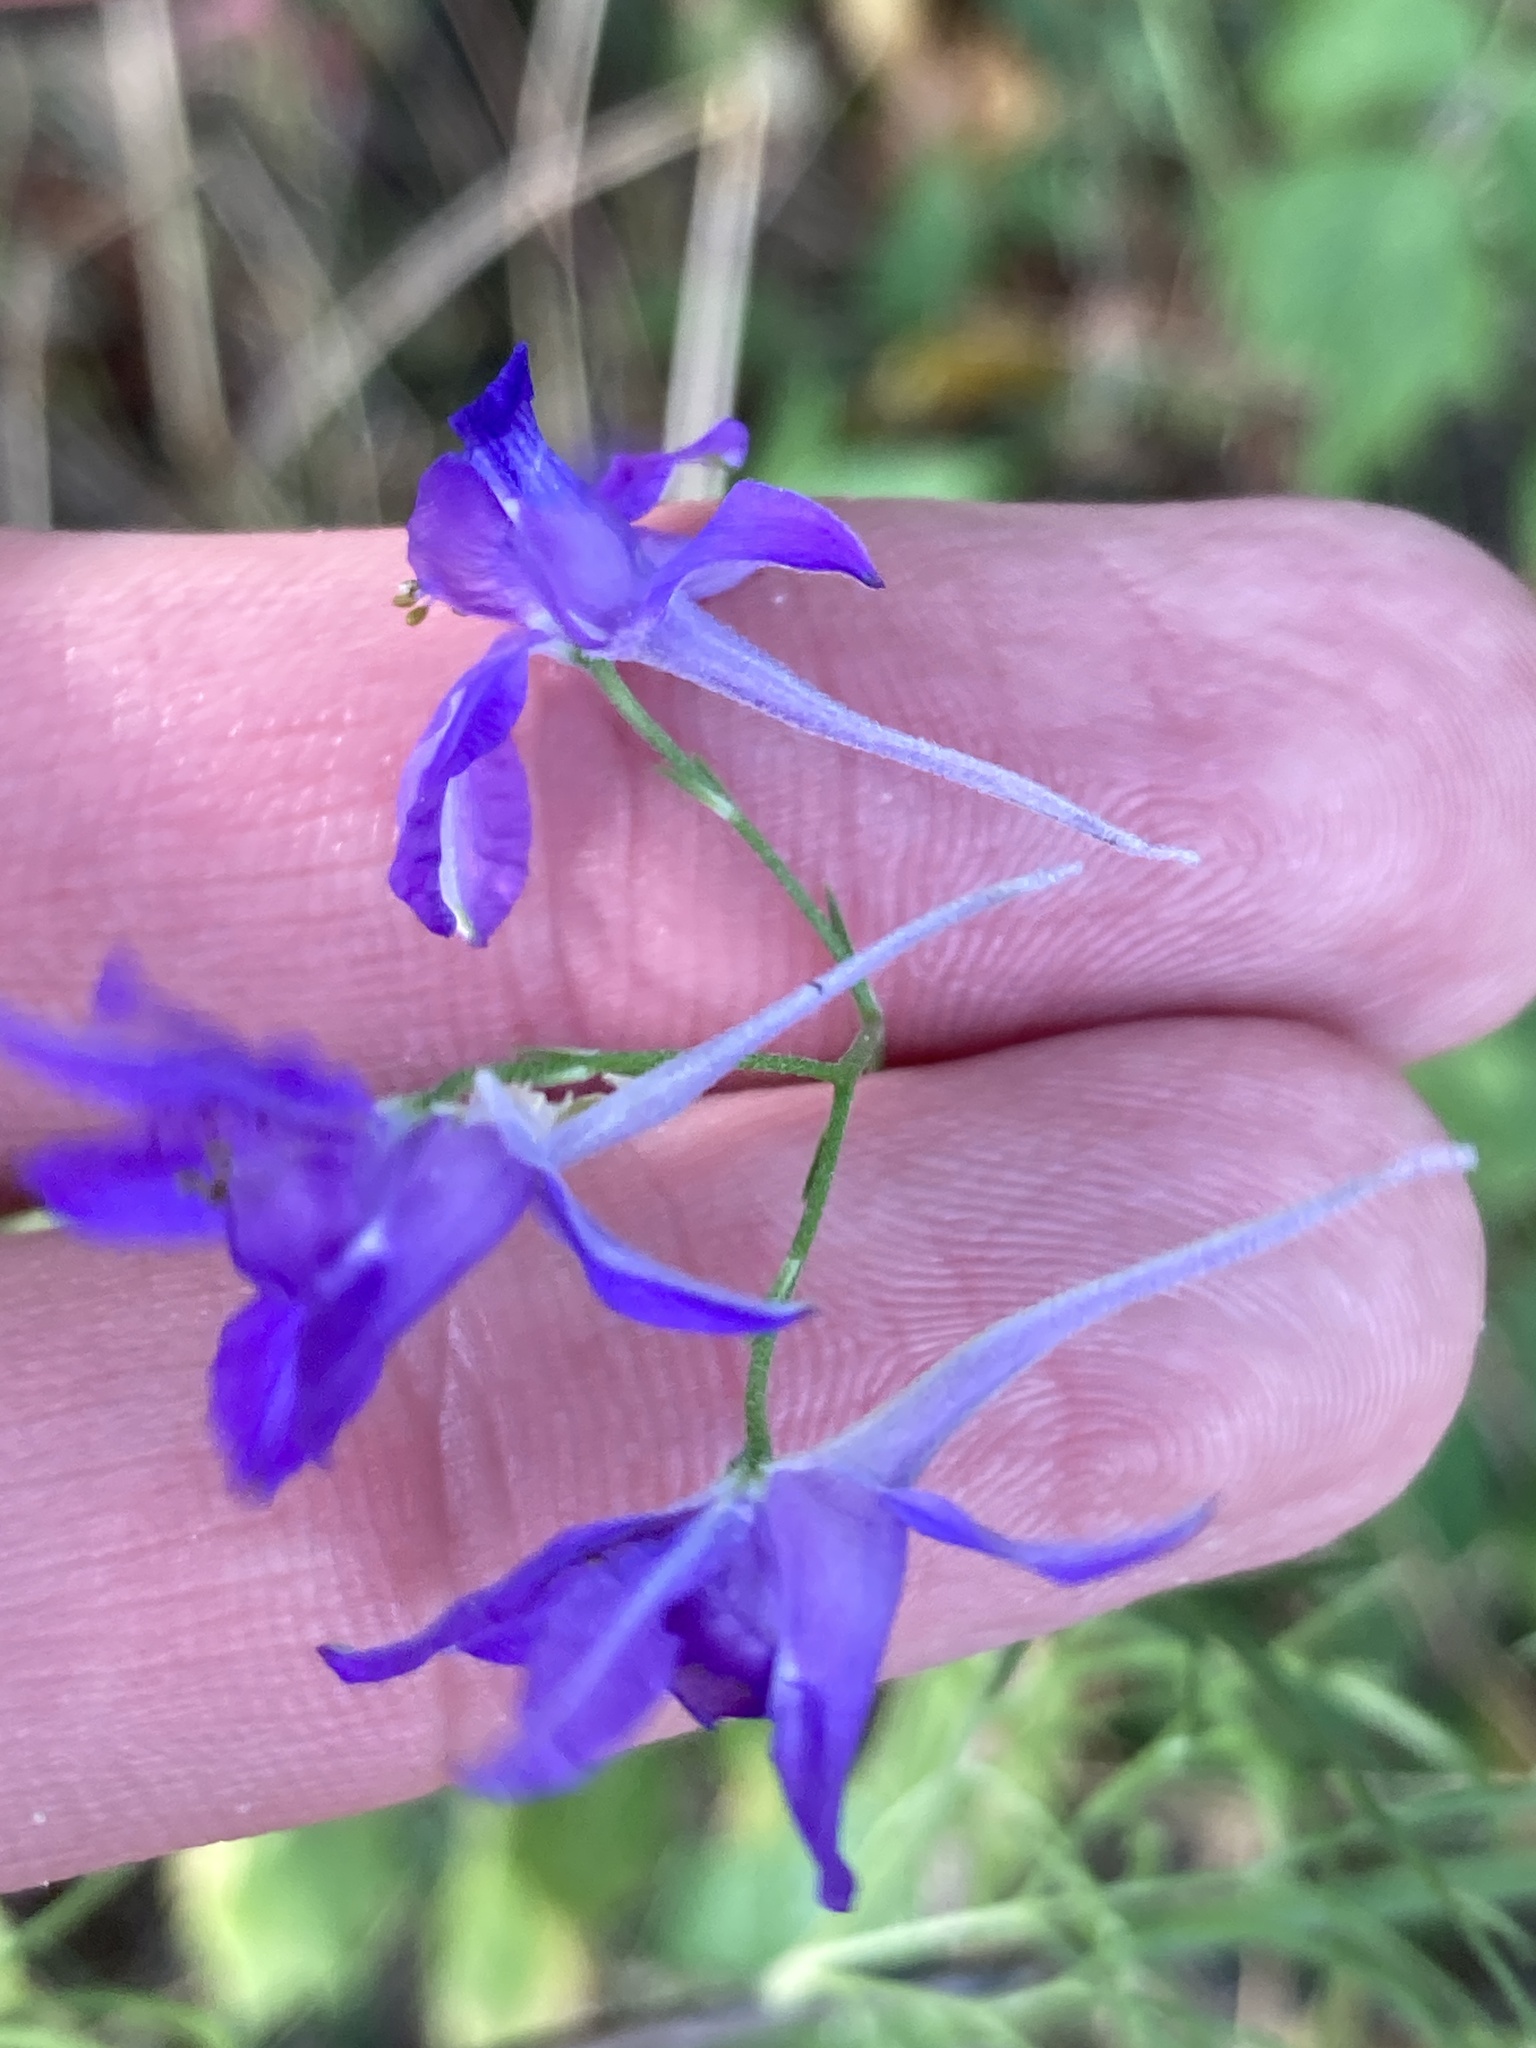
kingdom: Plantae
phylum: Tracheophyta
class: Magnoliopsida
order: Ranunculales
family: Ranunculaceae
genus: Delphinium
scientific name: Delphinium consolida
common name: Branching larkspur
